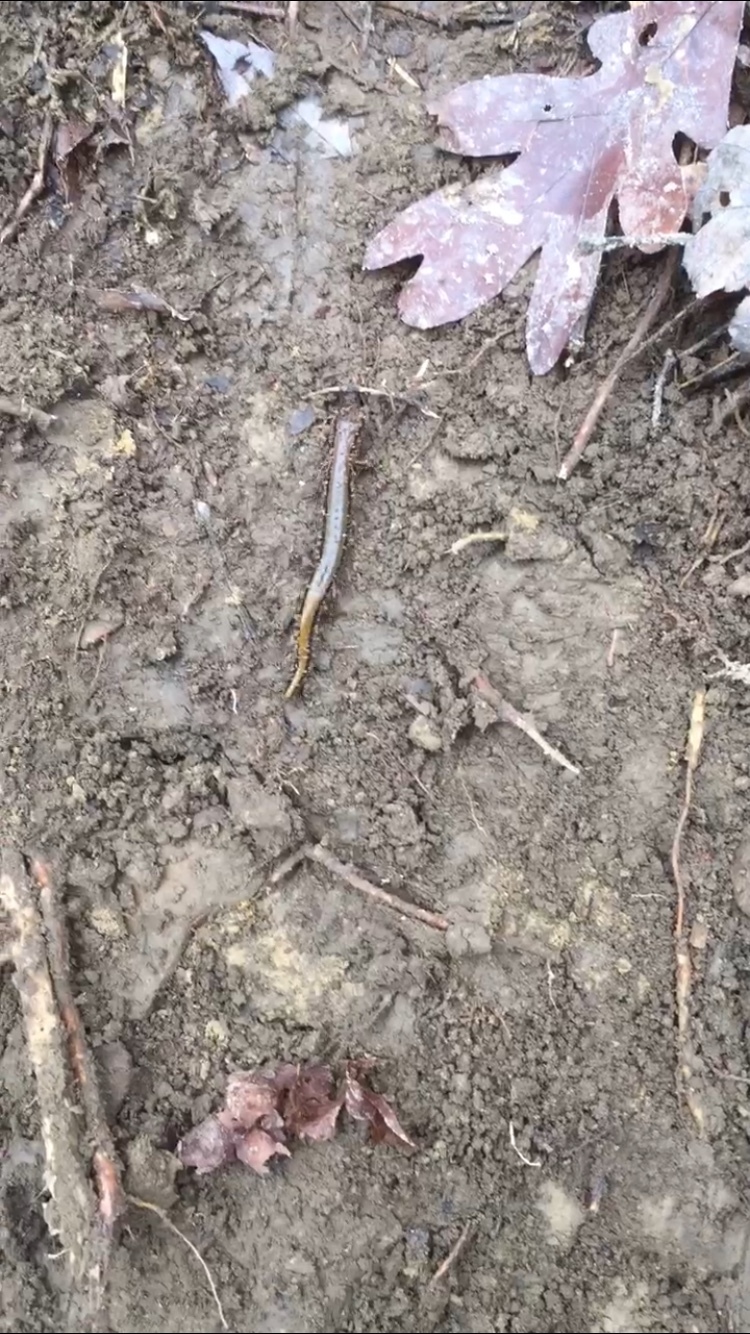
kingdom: Animalia
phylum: Chordata
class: Amphibia
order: Caudata
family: Plethodontidae
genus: Eurycea
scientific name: Eurycea cirrigera
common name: Southern two-lined salamander
